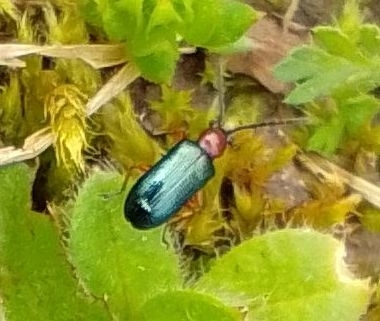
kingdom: Animalia
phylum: Arthropoda
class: Insecta
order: Coleoptera
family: Chrysomelidae
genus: Oulema
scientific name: Oulema
